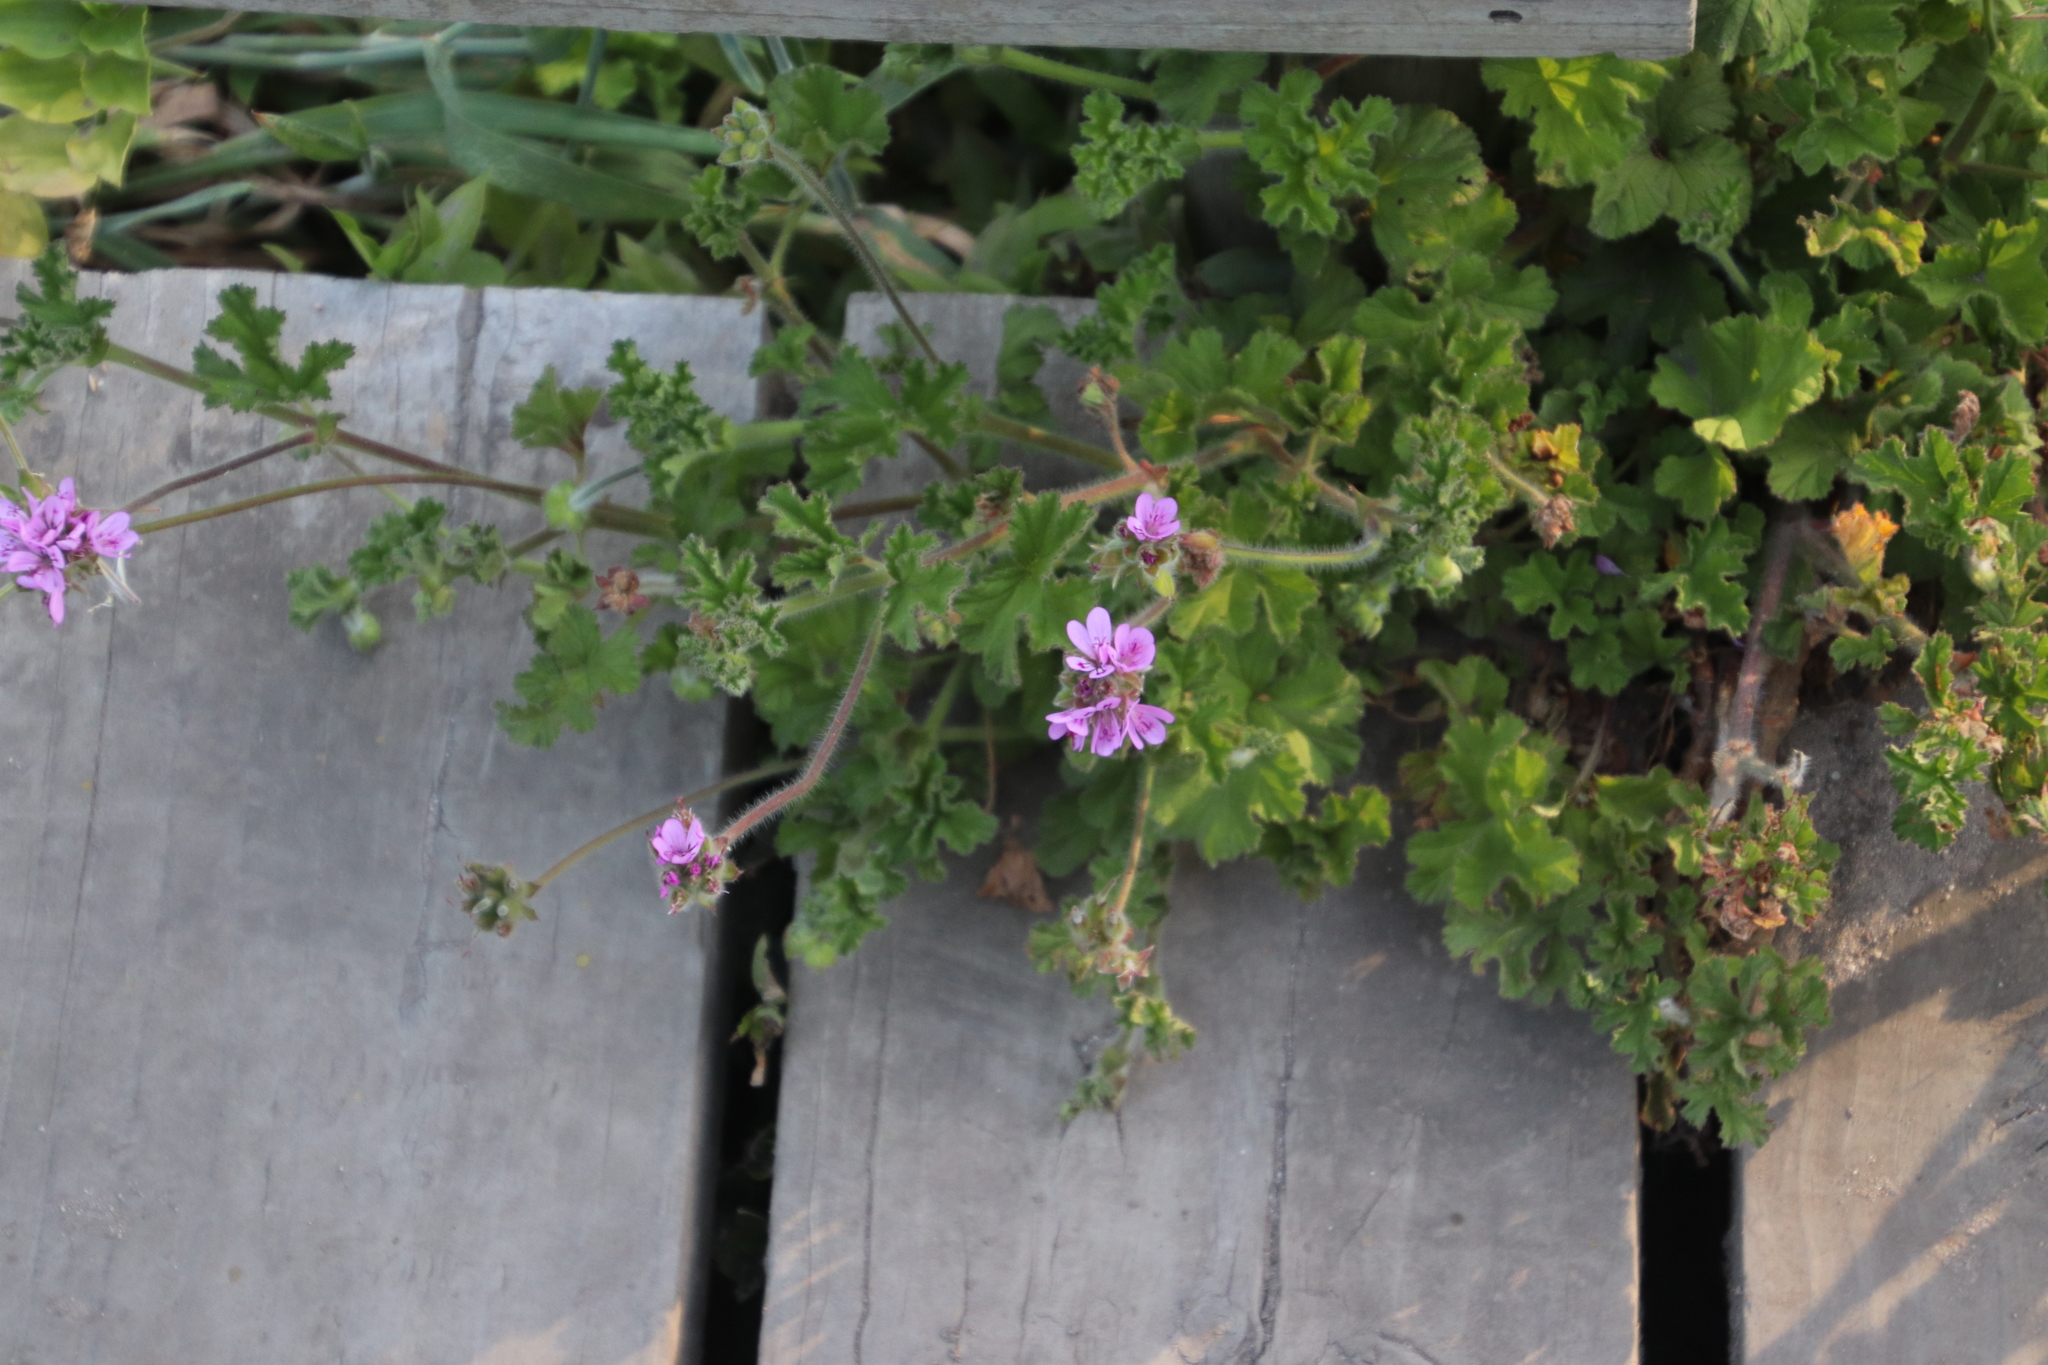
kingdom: Plantae
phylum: Tracheophyta
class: Magnoliopsida
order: Geraniales
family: Geraniaceae
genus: Pelargonium
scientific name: Pelargonium capitatum
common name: Rose scented geranium
